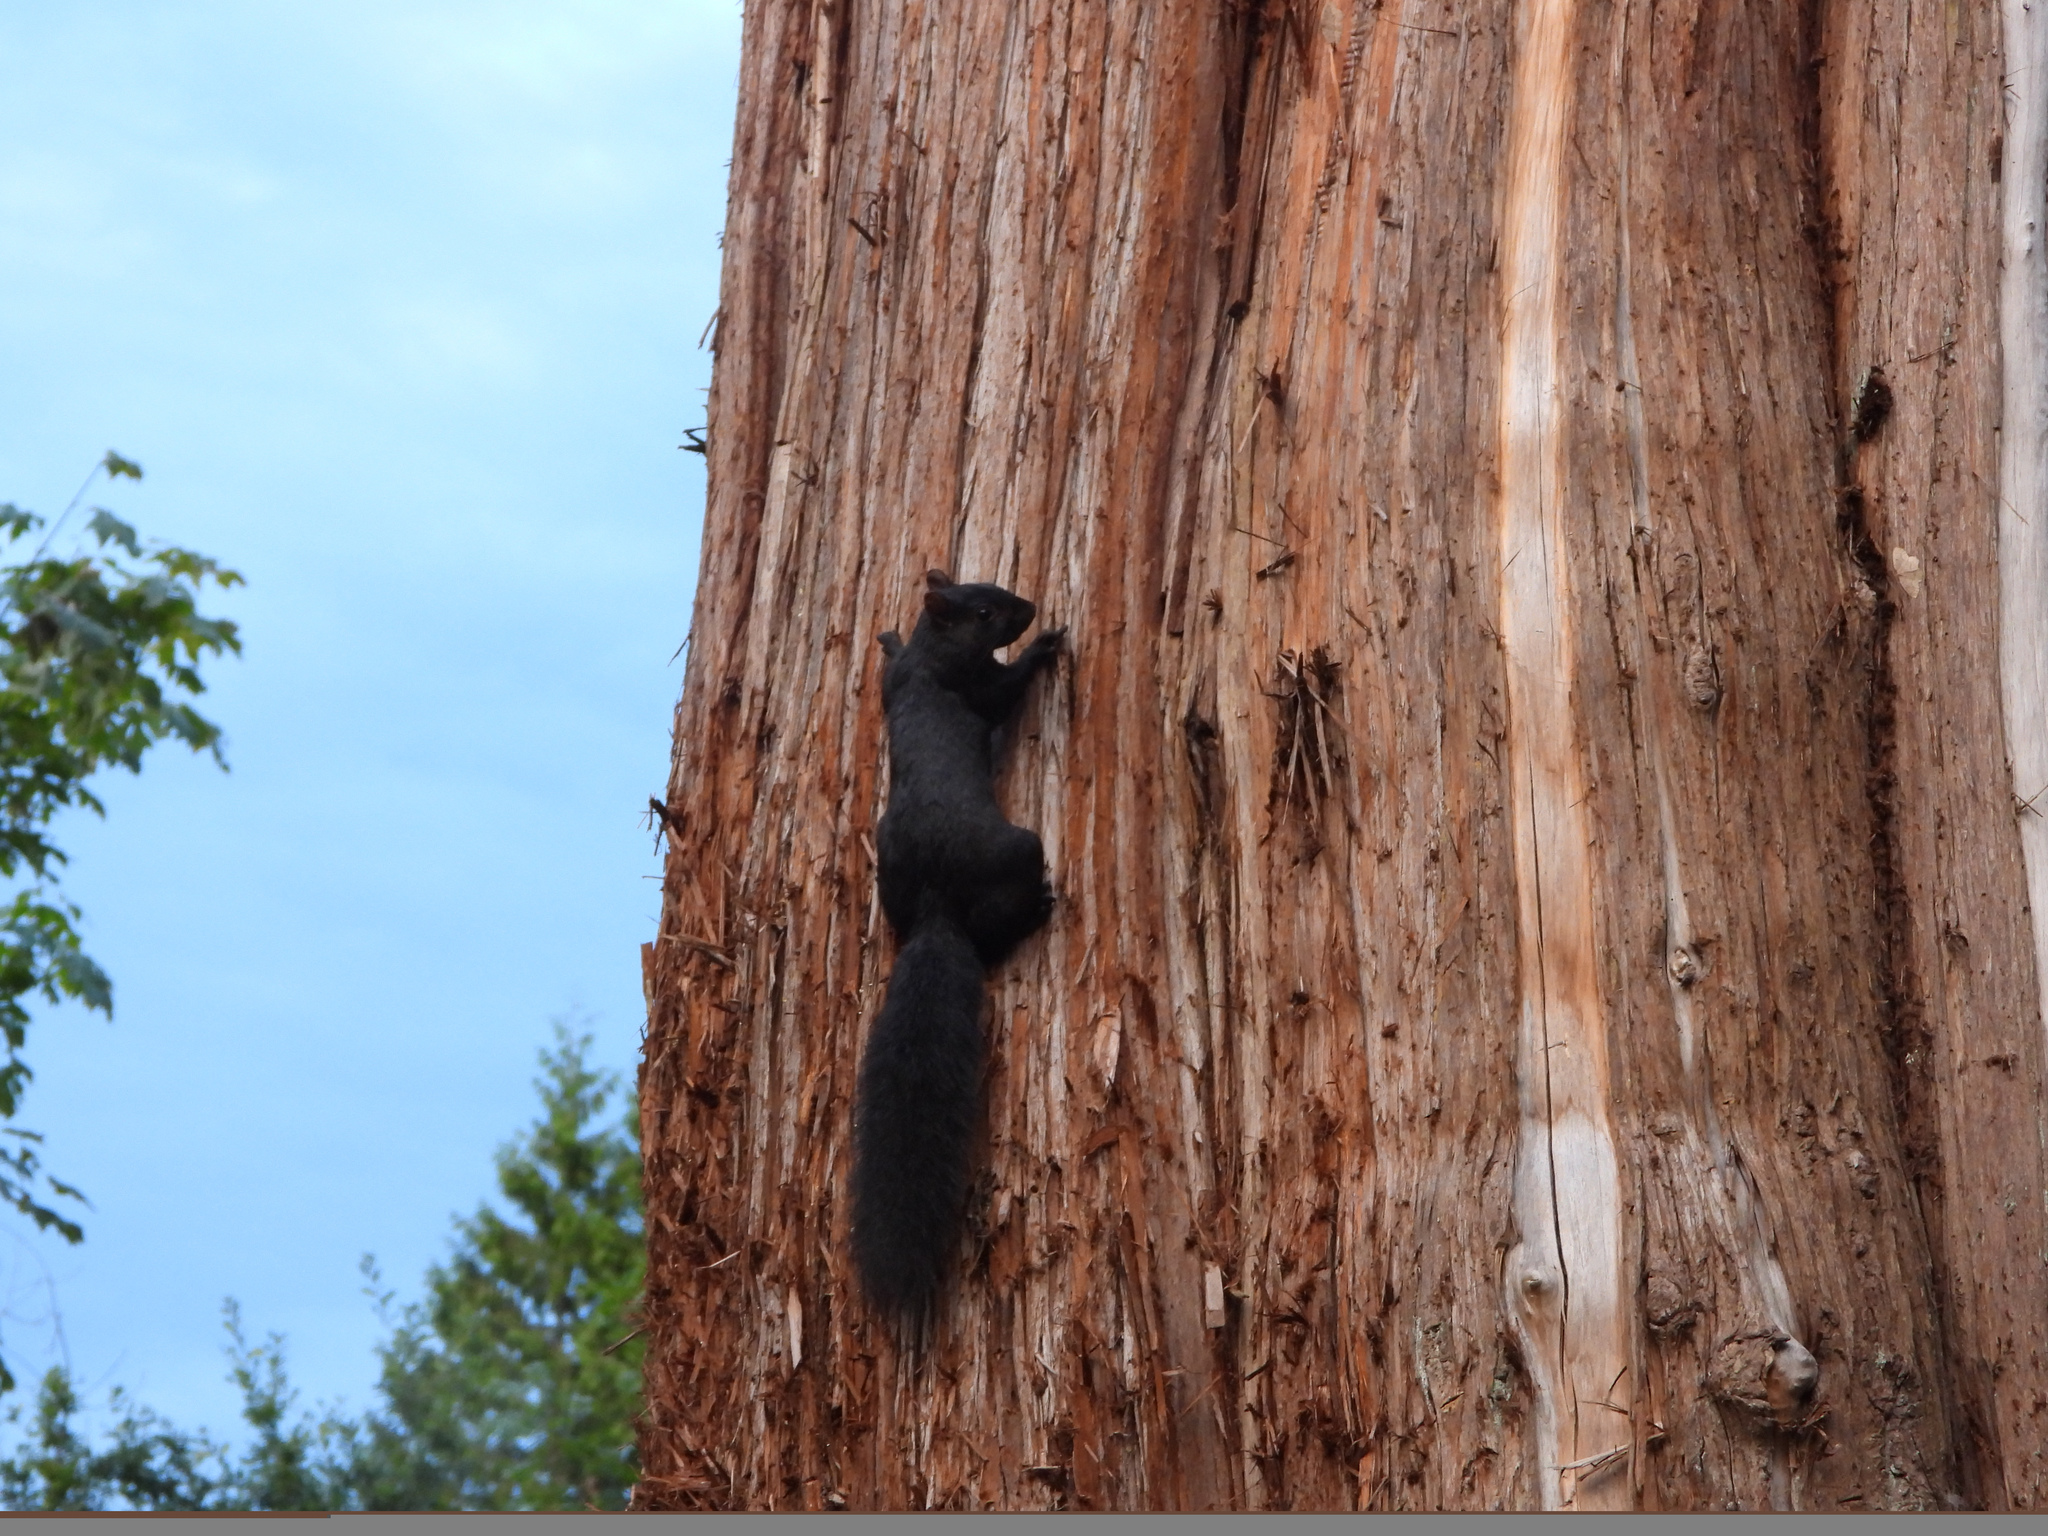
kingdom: Animalia
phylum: Chordata
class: Mammalia
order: Rodentia
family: Sciuridae
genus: Sciurus
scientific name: Sciurus carolinensis
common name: Eastern gray squirrel
